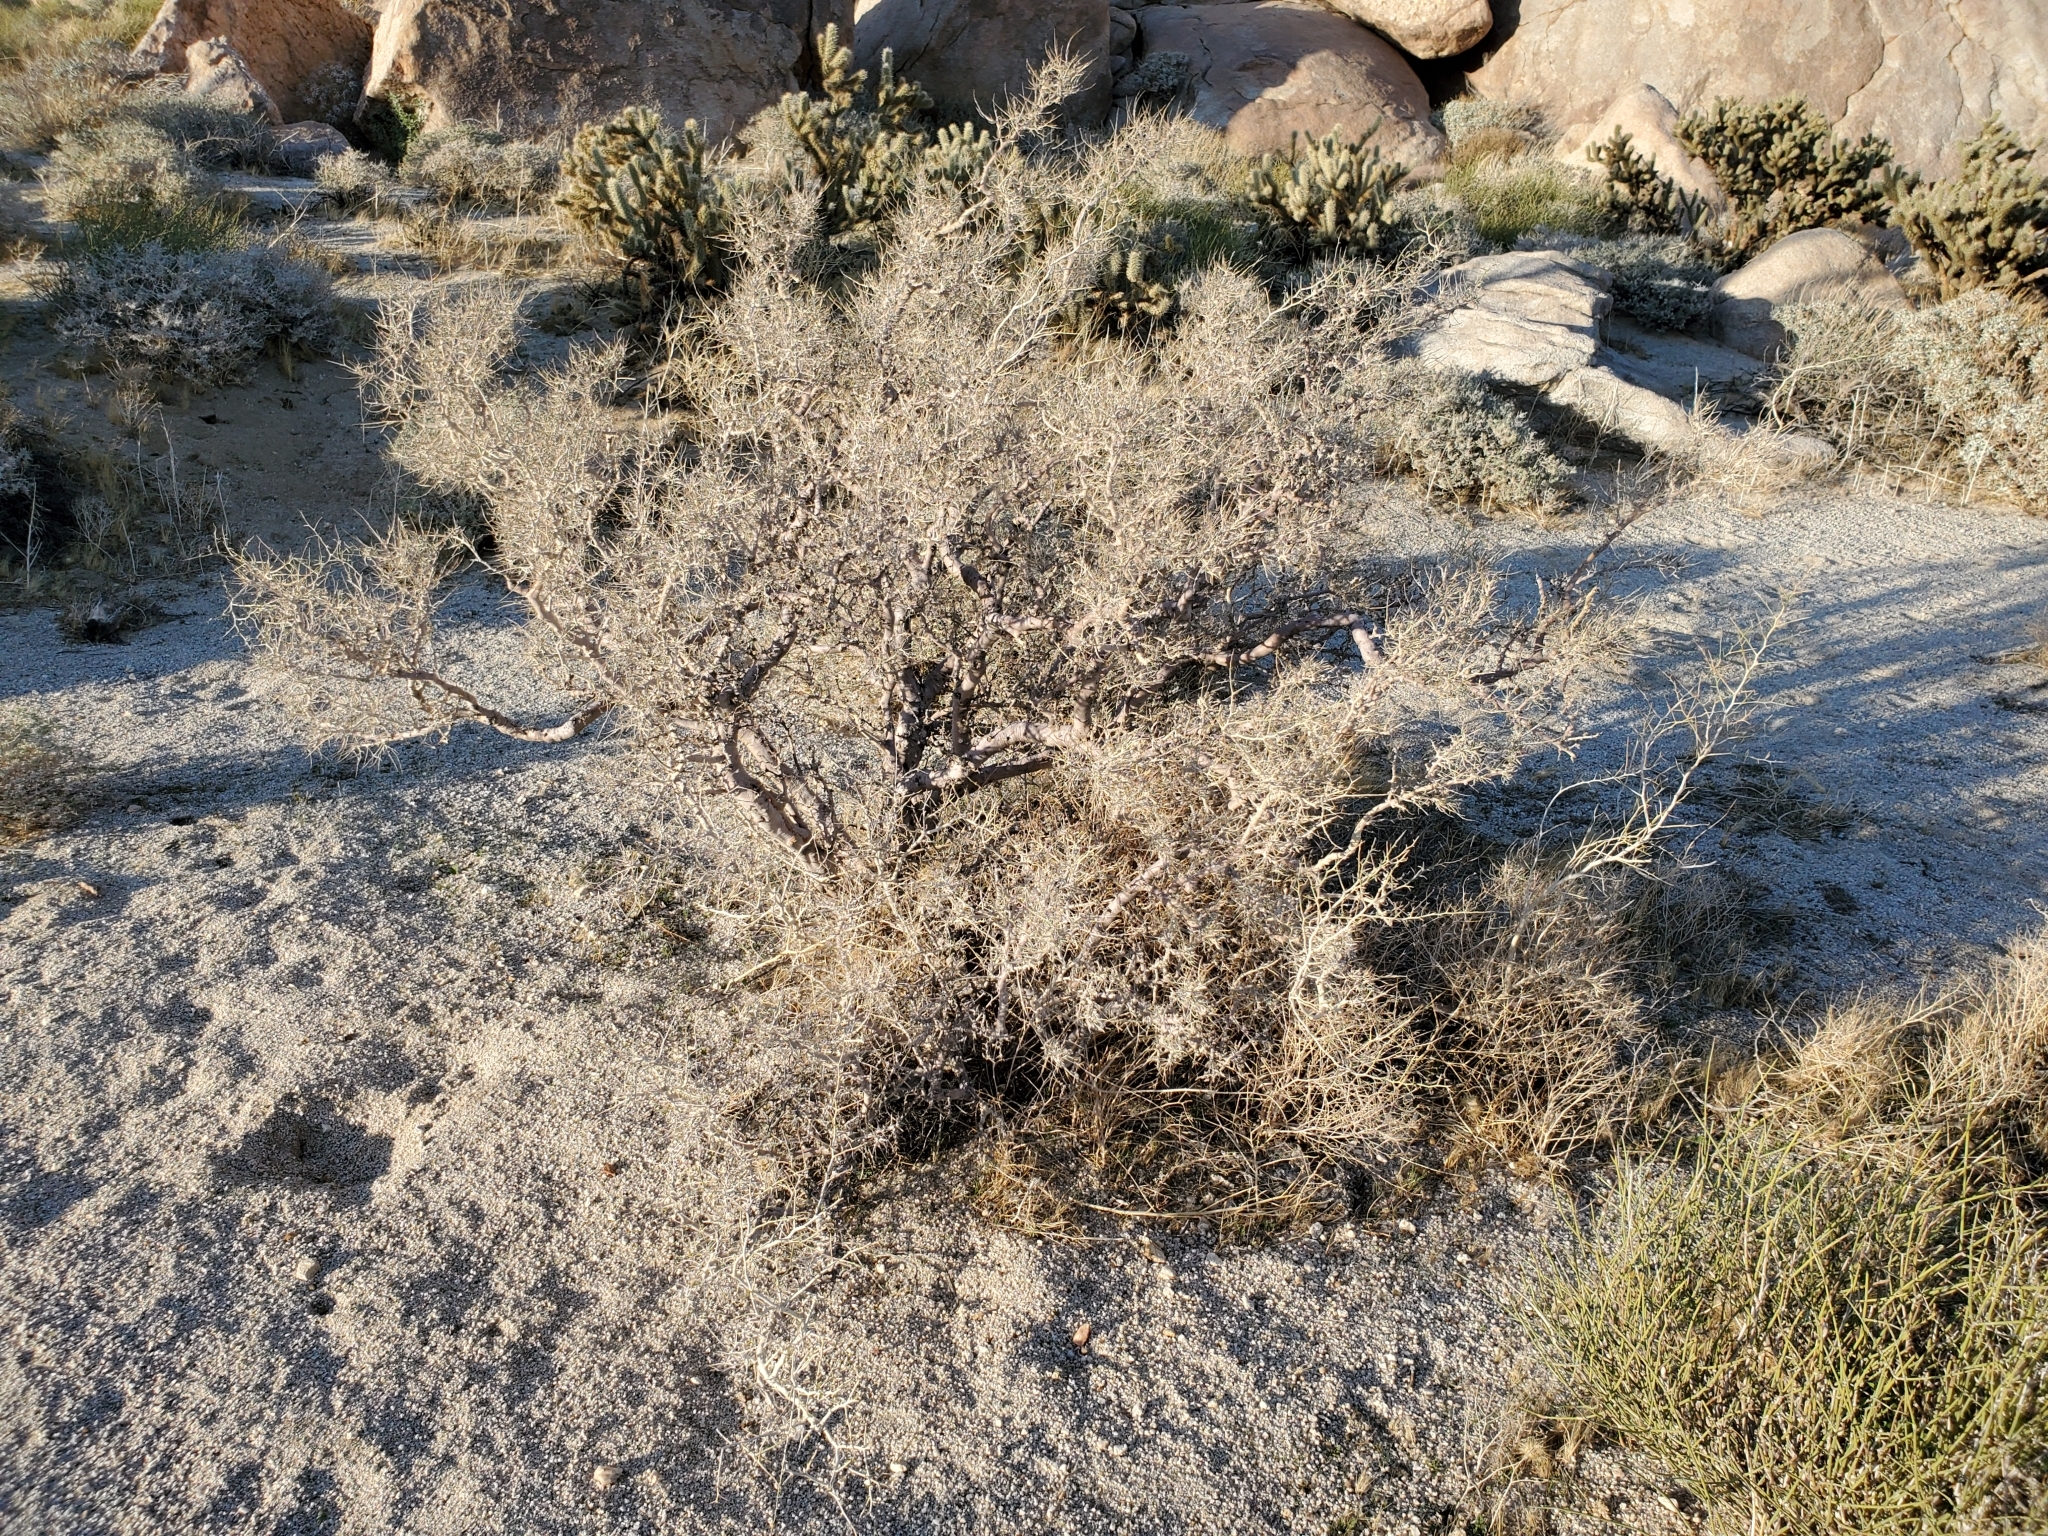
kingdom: Plantae
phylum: Tracheophyta
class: Magnoliopsida
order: Fabales
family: Fabaceae
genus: Psorothamnus
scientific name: Psorothamnus schottii
